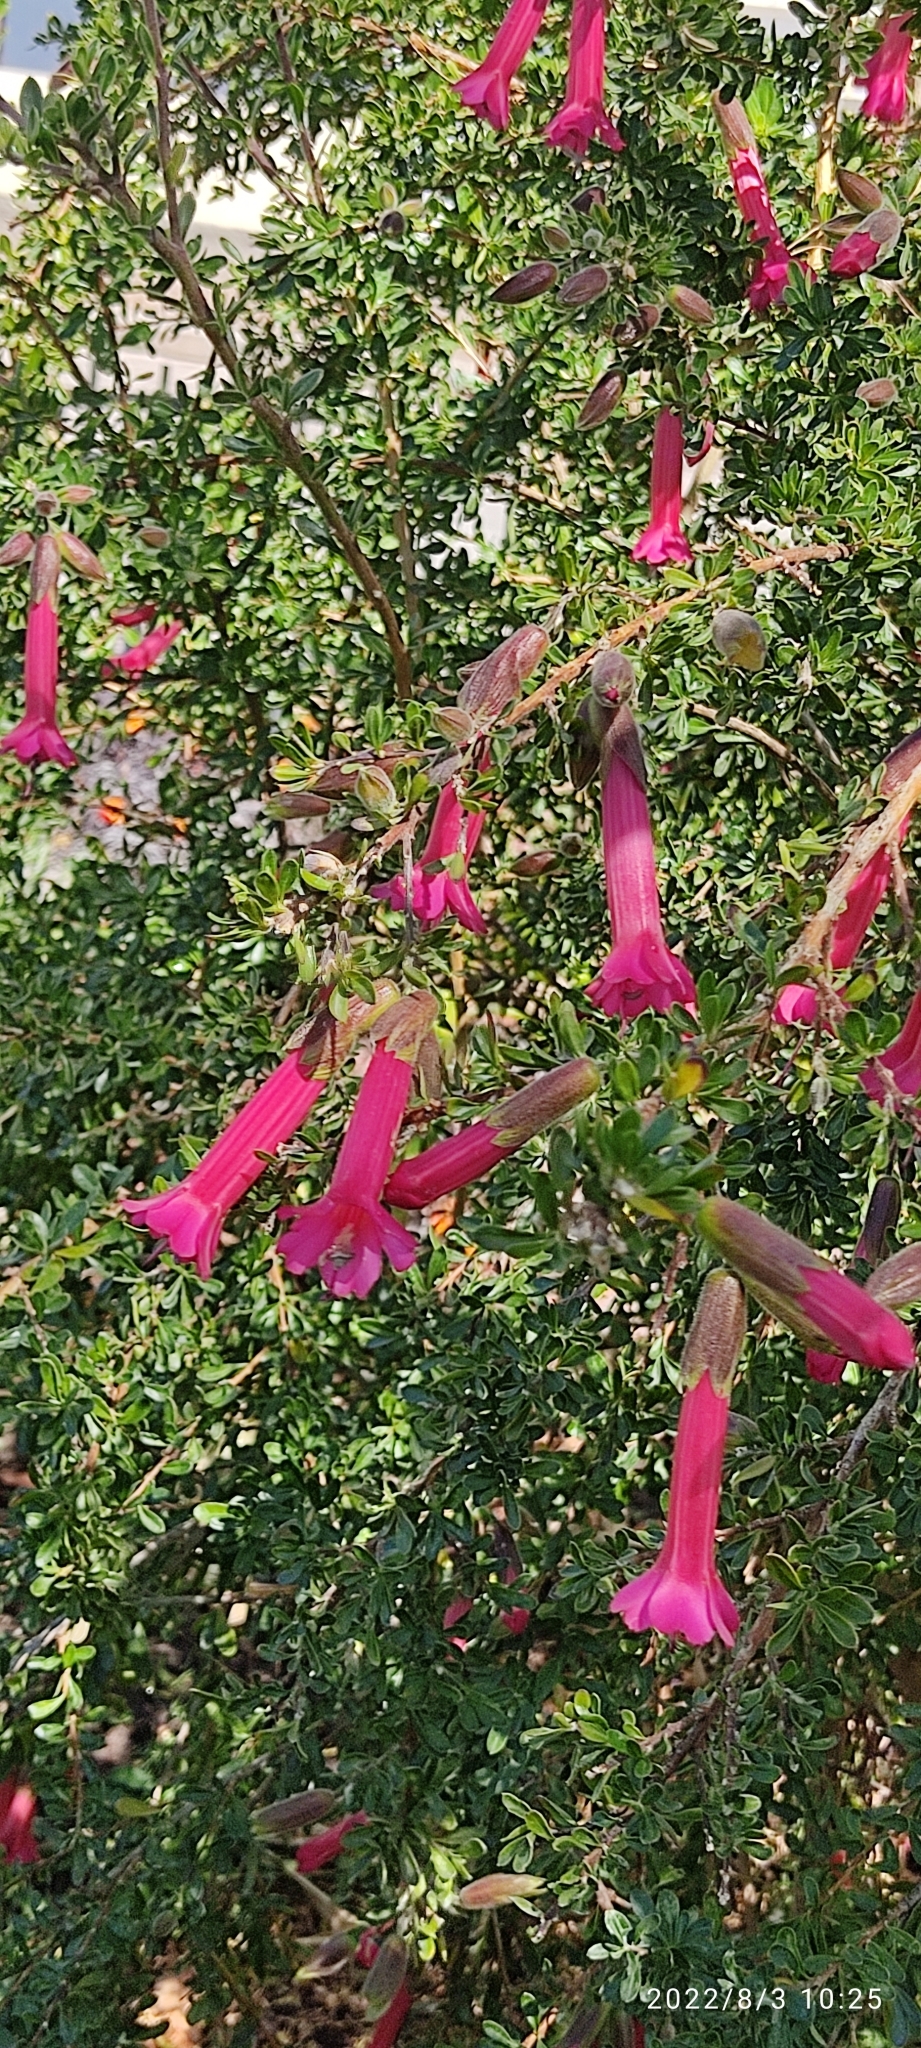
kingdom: Plantae
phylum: Tracheophyta
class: Magnoliopsida
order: Ericales
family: Polemoniaceae
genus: Cantua
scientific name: Cantua buxifolia
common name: Sacred-flower-of-the-incas
